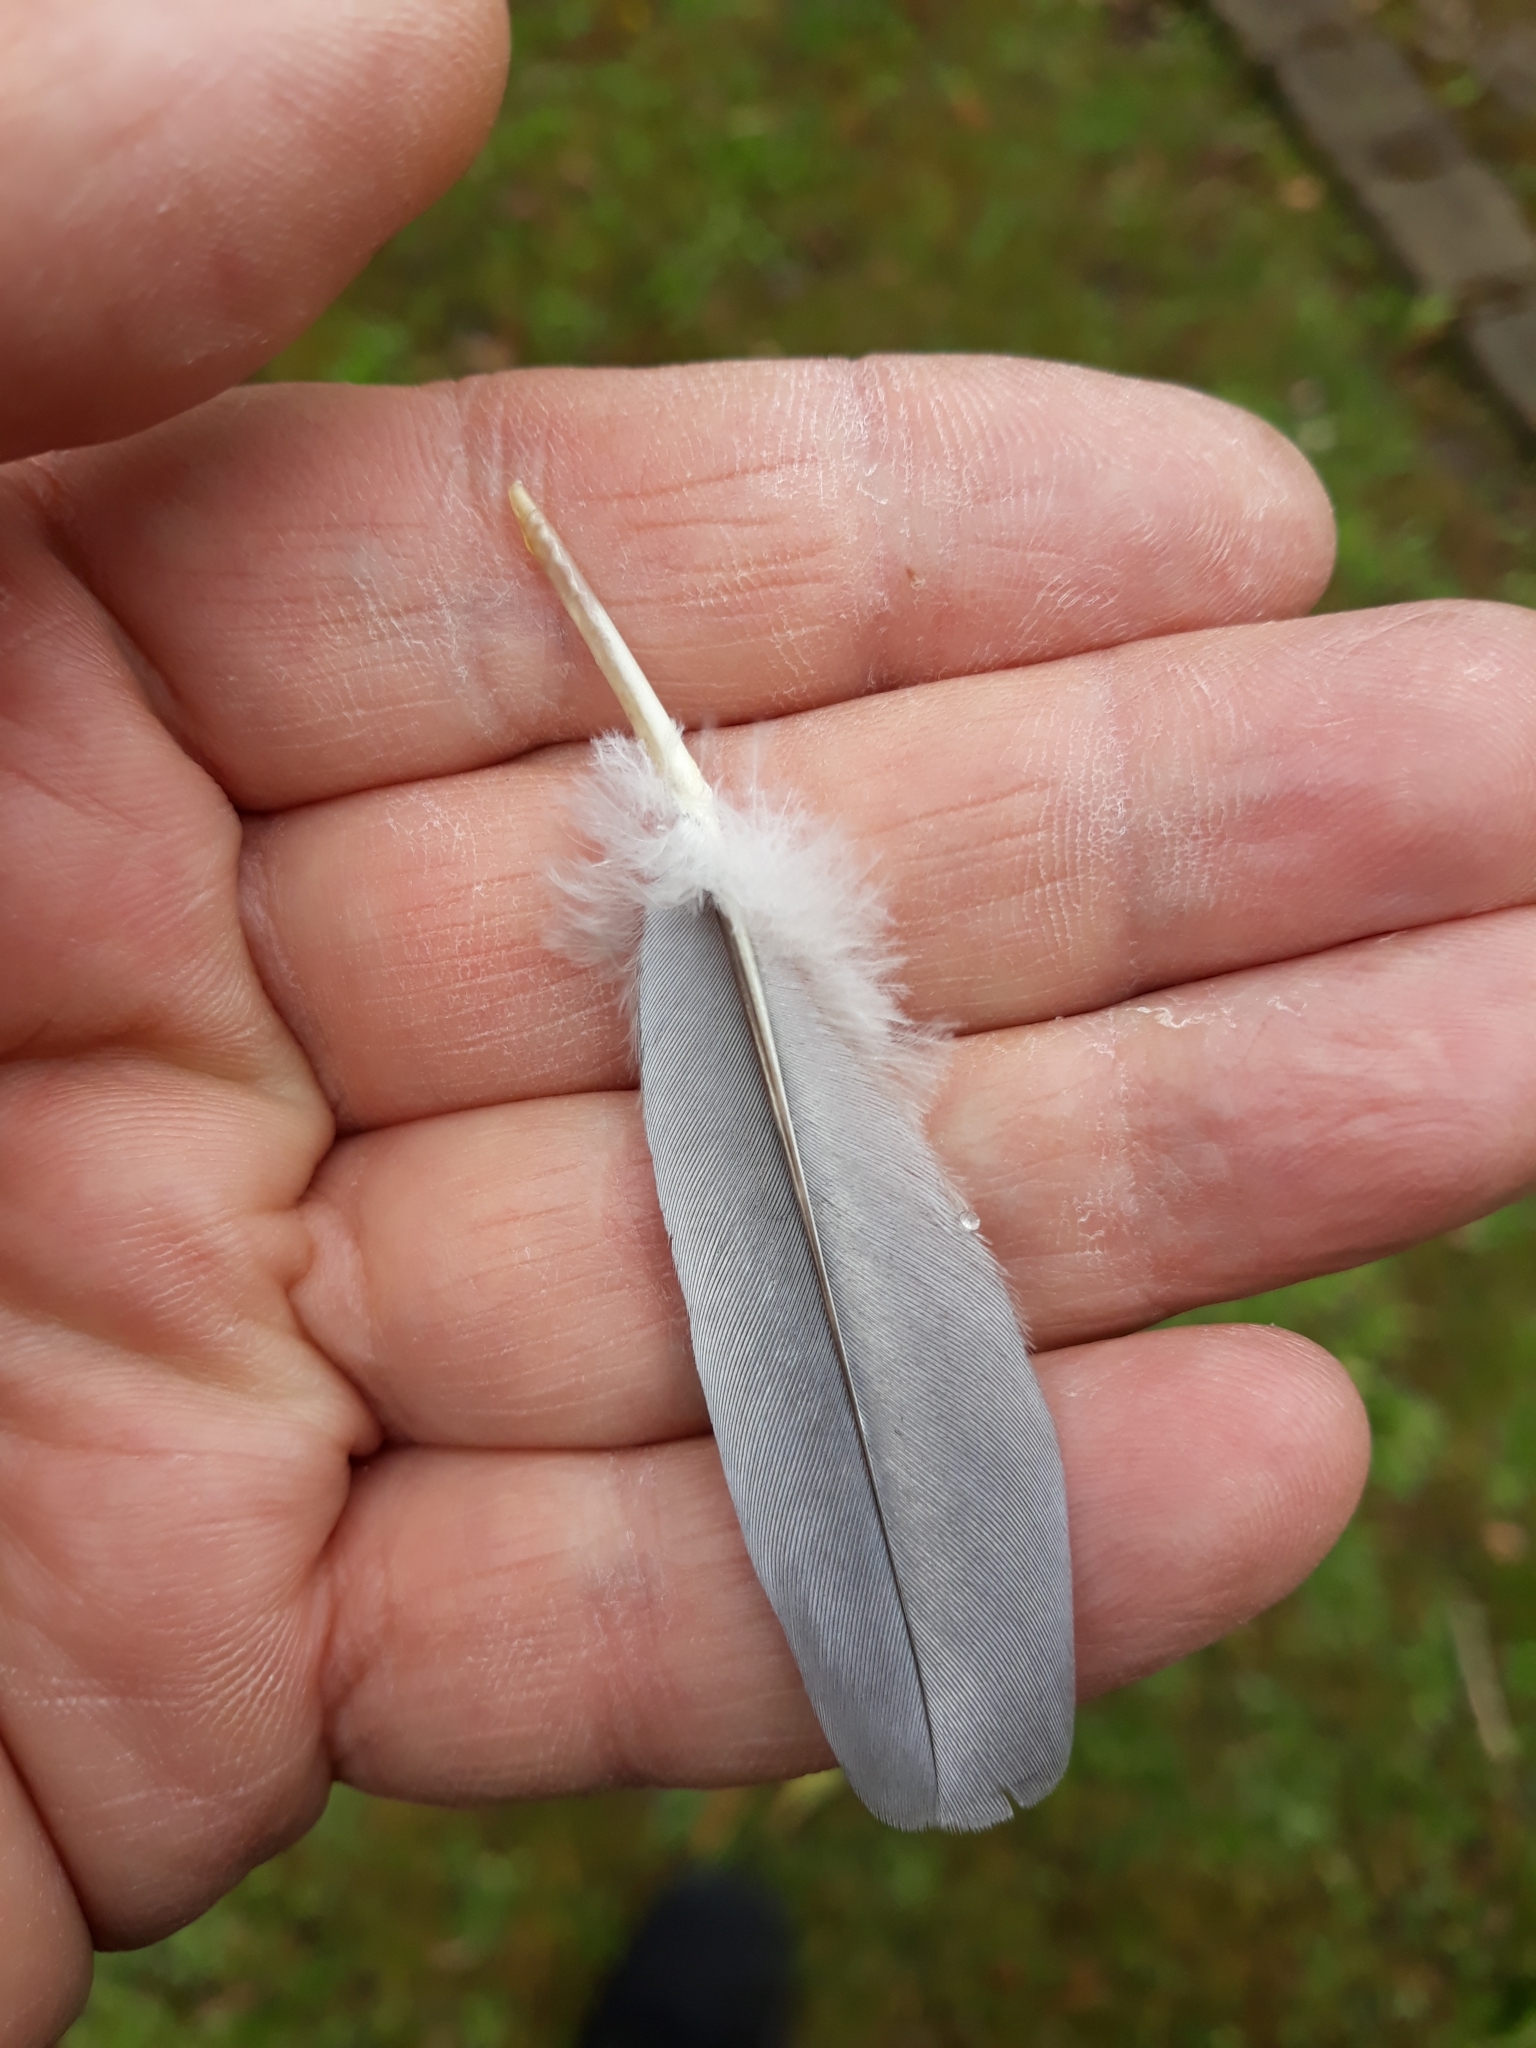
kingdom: Animalia
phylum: Chordata
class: Aves
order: Columbiformes
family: Columbidae
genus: Columba
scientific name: Columba palumbus
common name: Common wood pigeon
